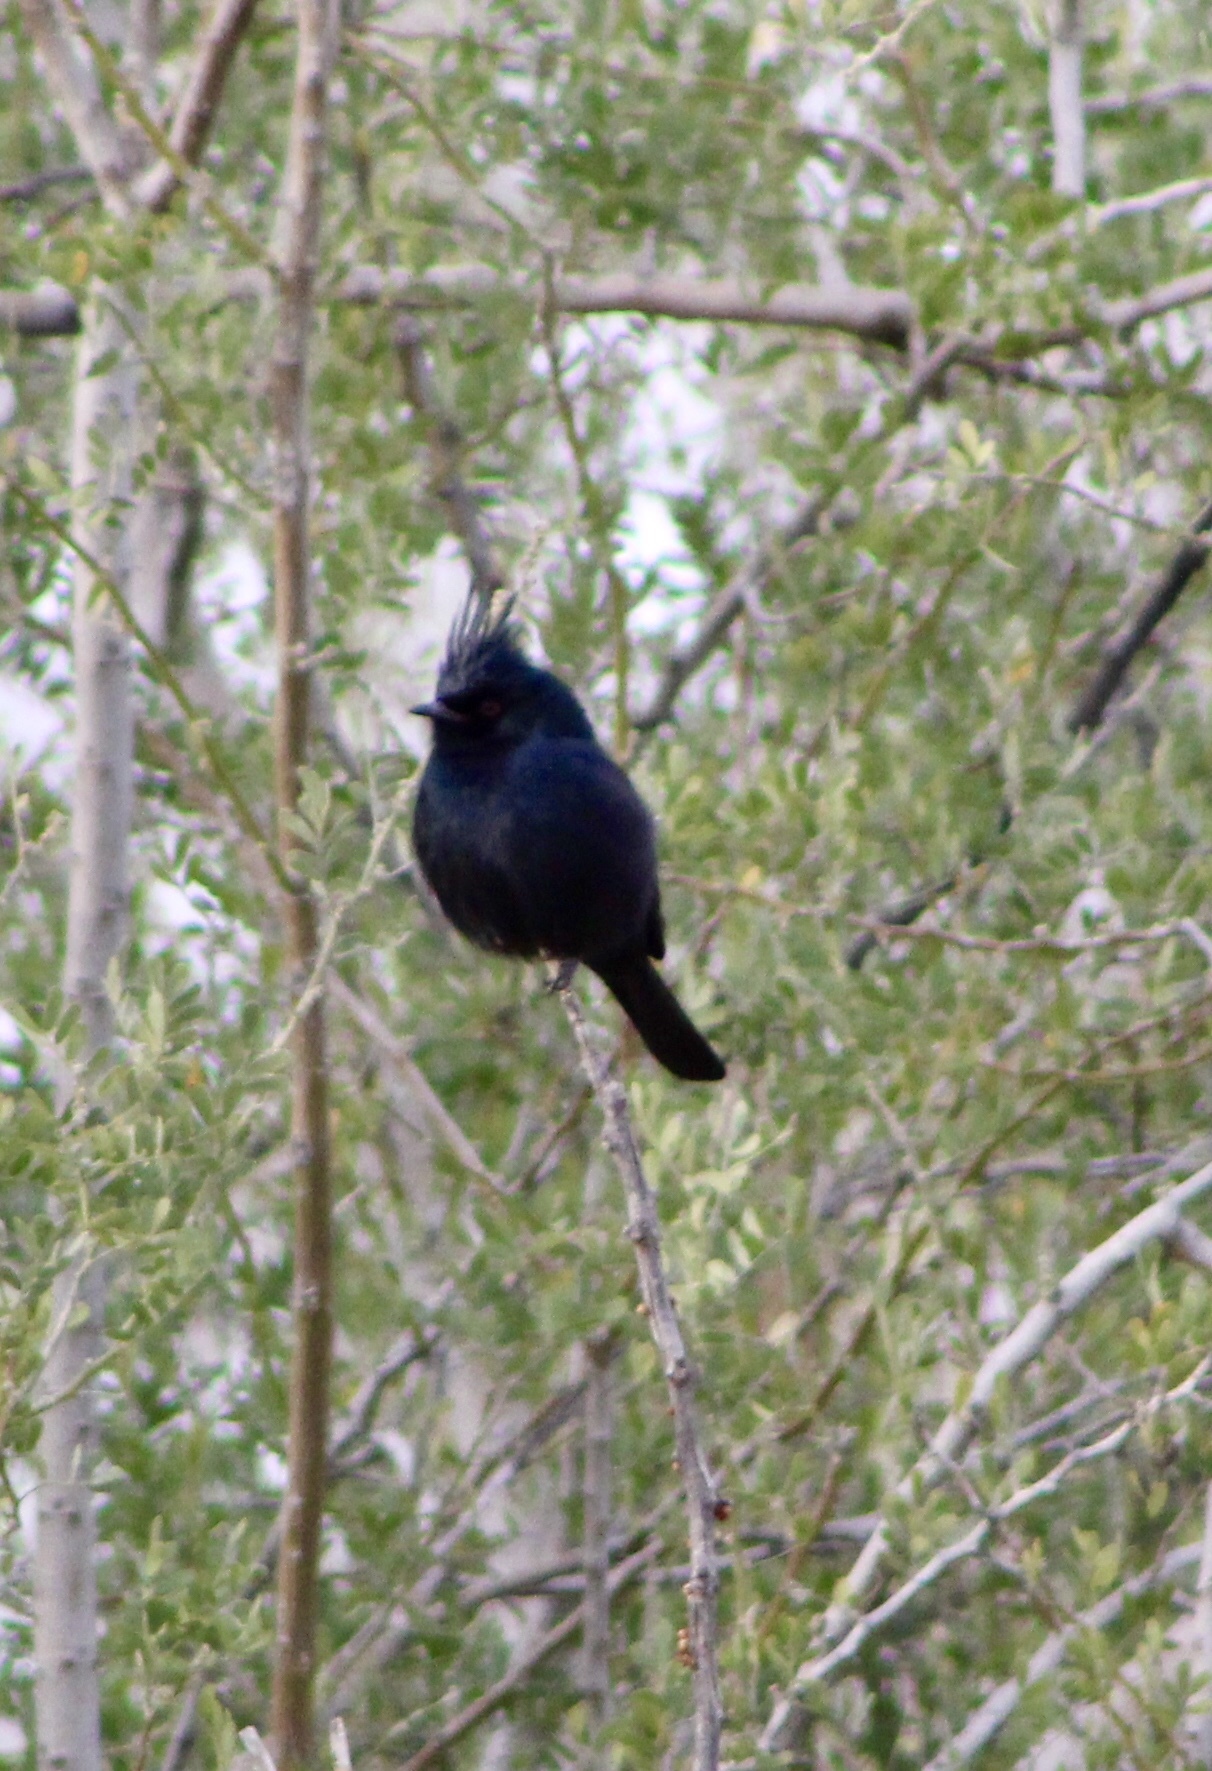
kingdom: Animalia
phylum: Chordata
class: Aves
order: Passeriformes
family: Ptilogonatidae
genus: Phainopepla
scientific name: Phainopepla nitens
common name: Phainopepla
